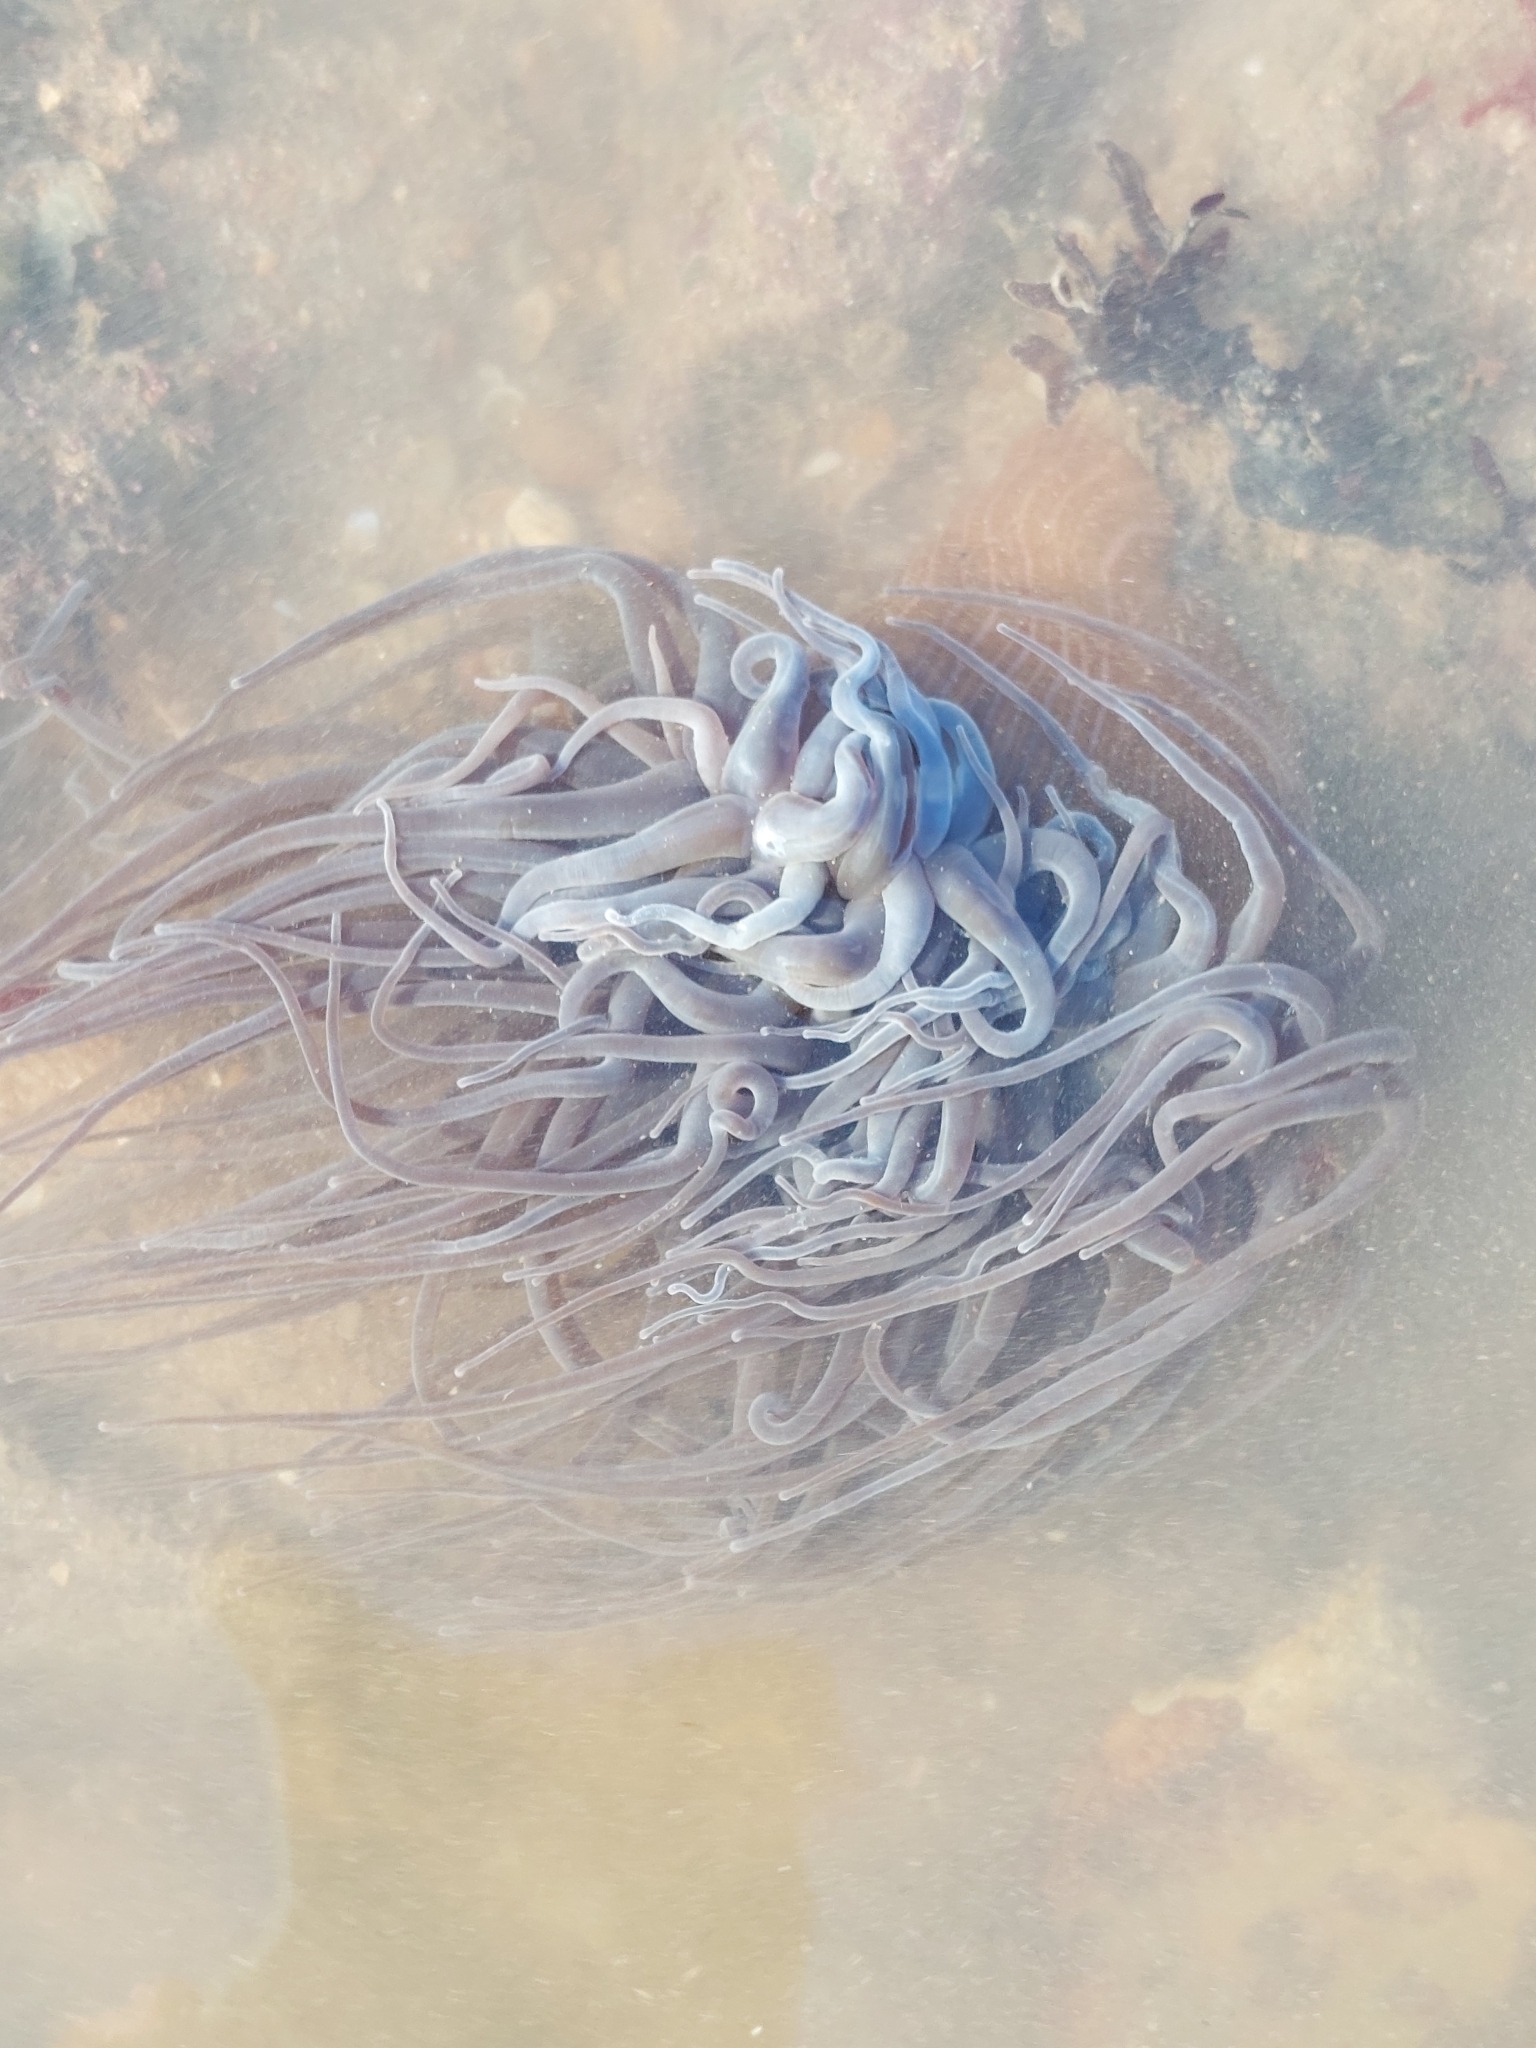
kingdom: Animalia
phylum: Cnidaria
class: Anthozoa
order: Actiniaria
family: Actiniidae
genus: Anemonia
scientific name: Anemonia viridis
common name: Snakelocks anemone
